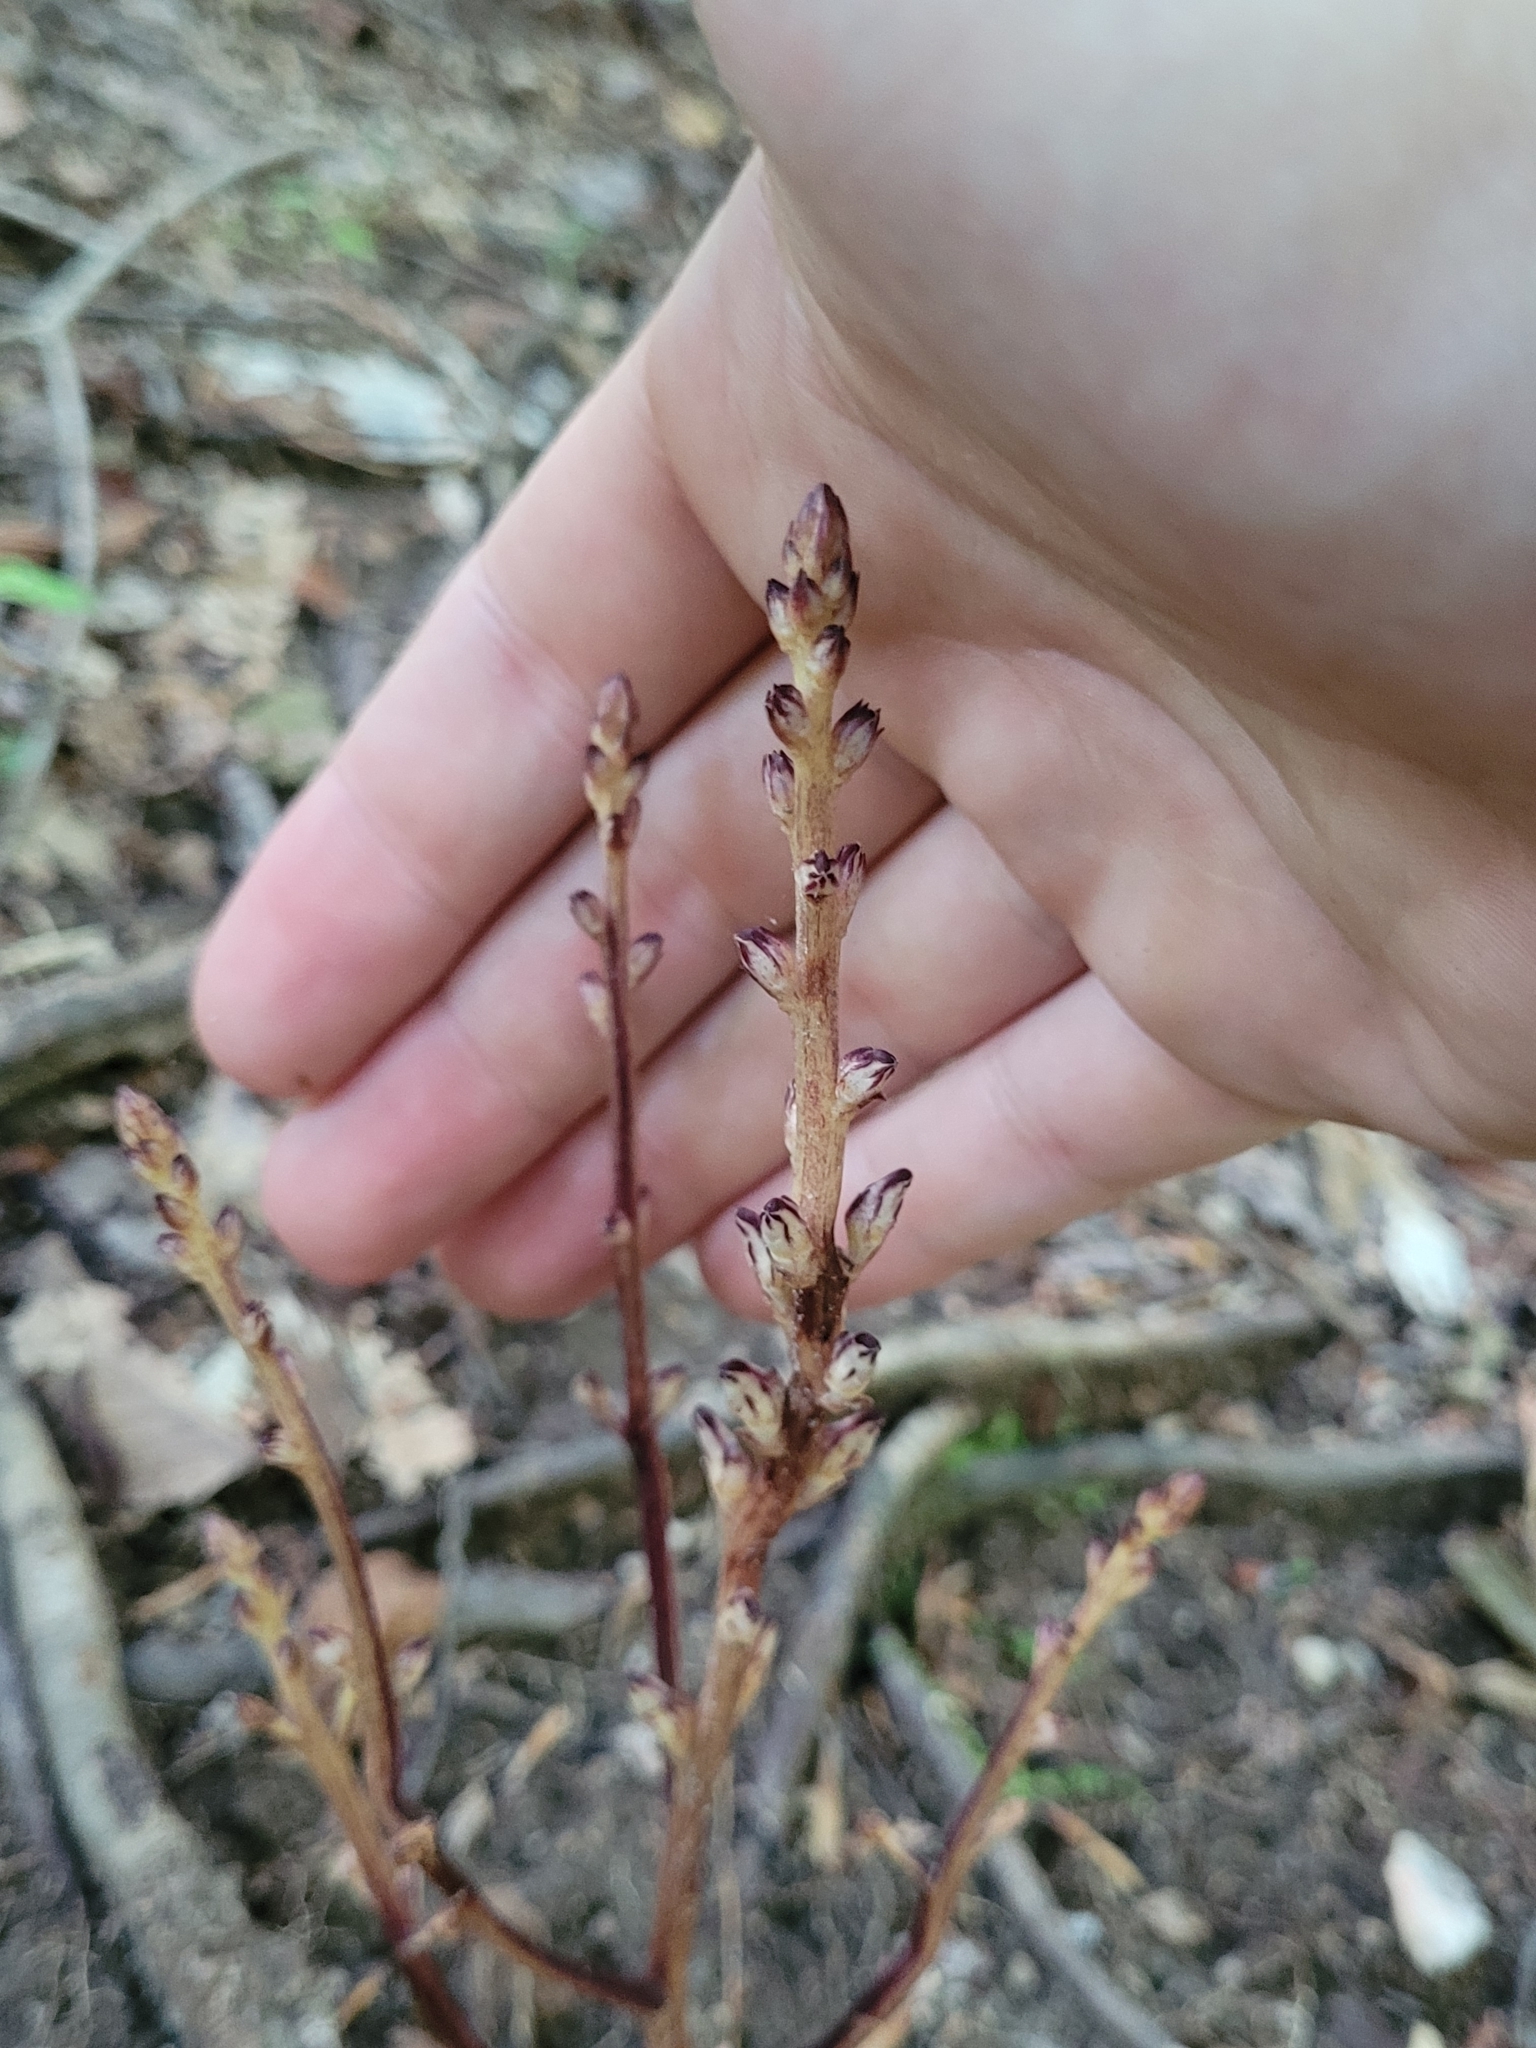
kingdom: Plantae
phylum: Tracheophyta
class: Magnoliopsida
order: Lamiales
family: Orobanchaceae
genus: Epifagus
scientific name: Epifagus virginiana
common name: Beechdrops
